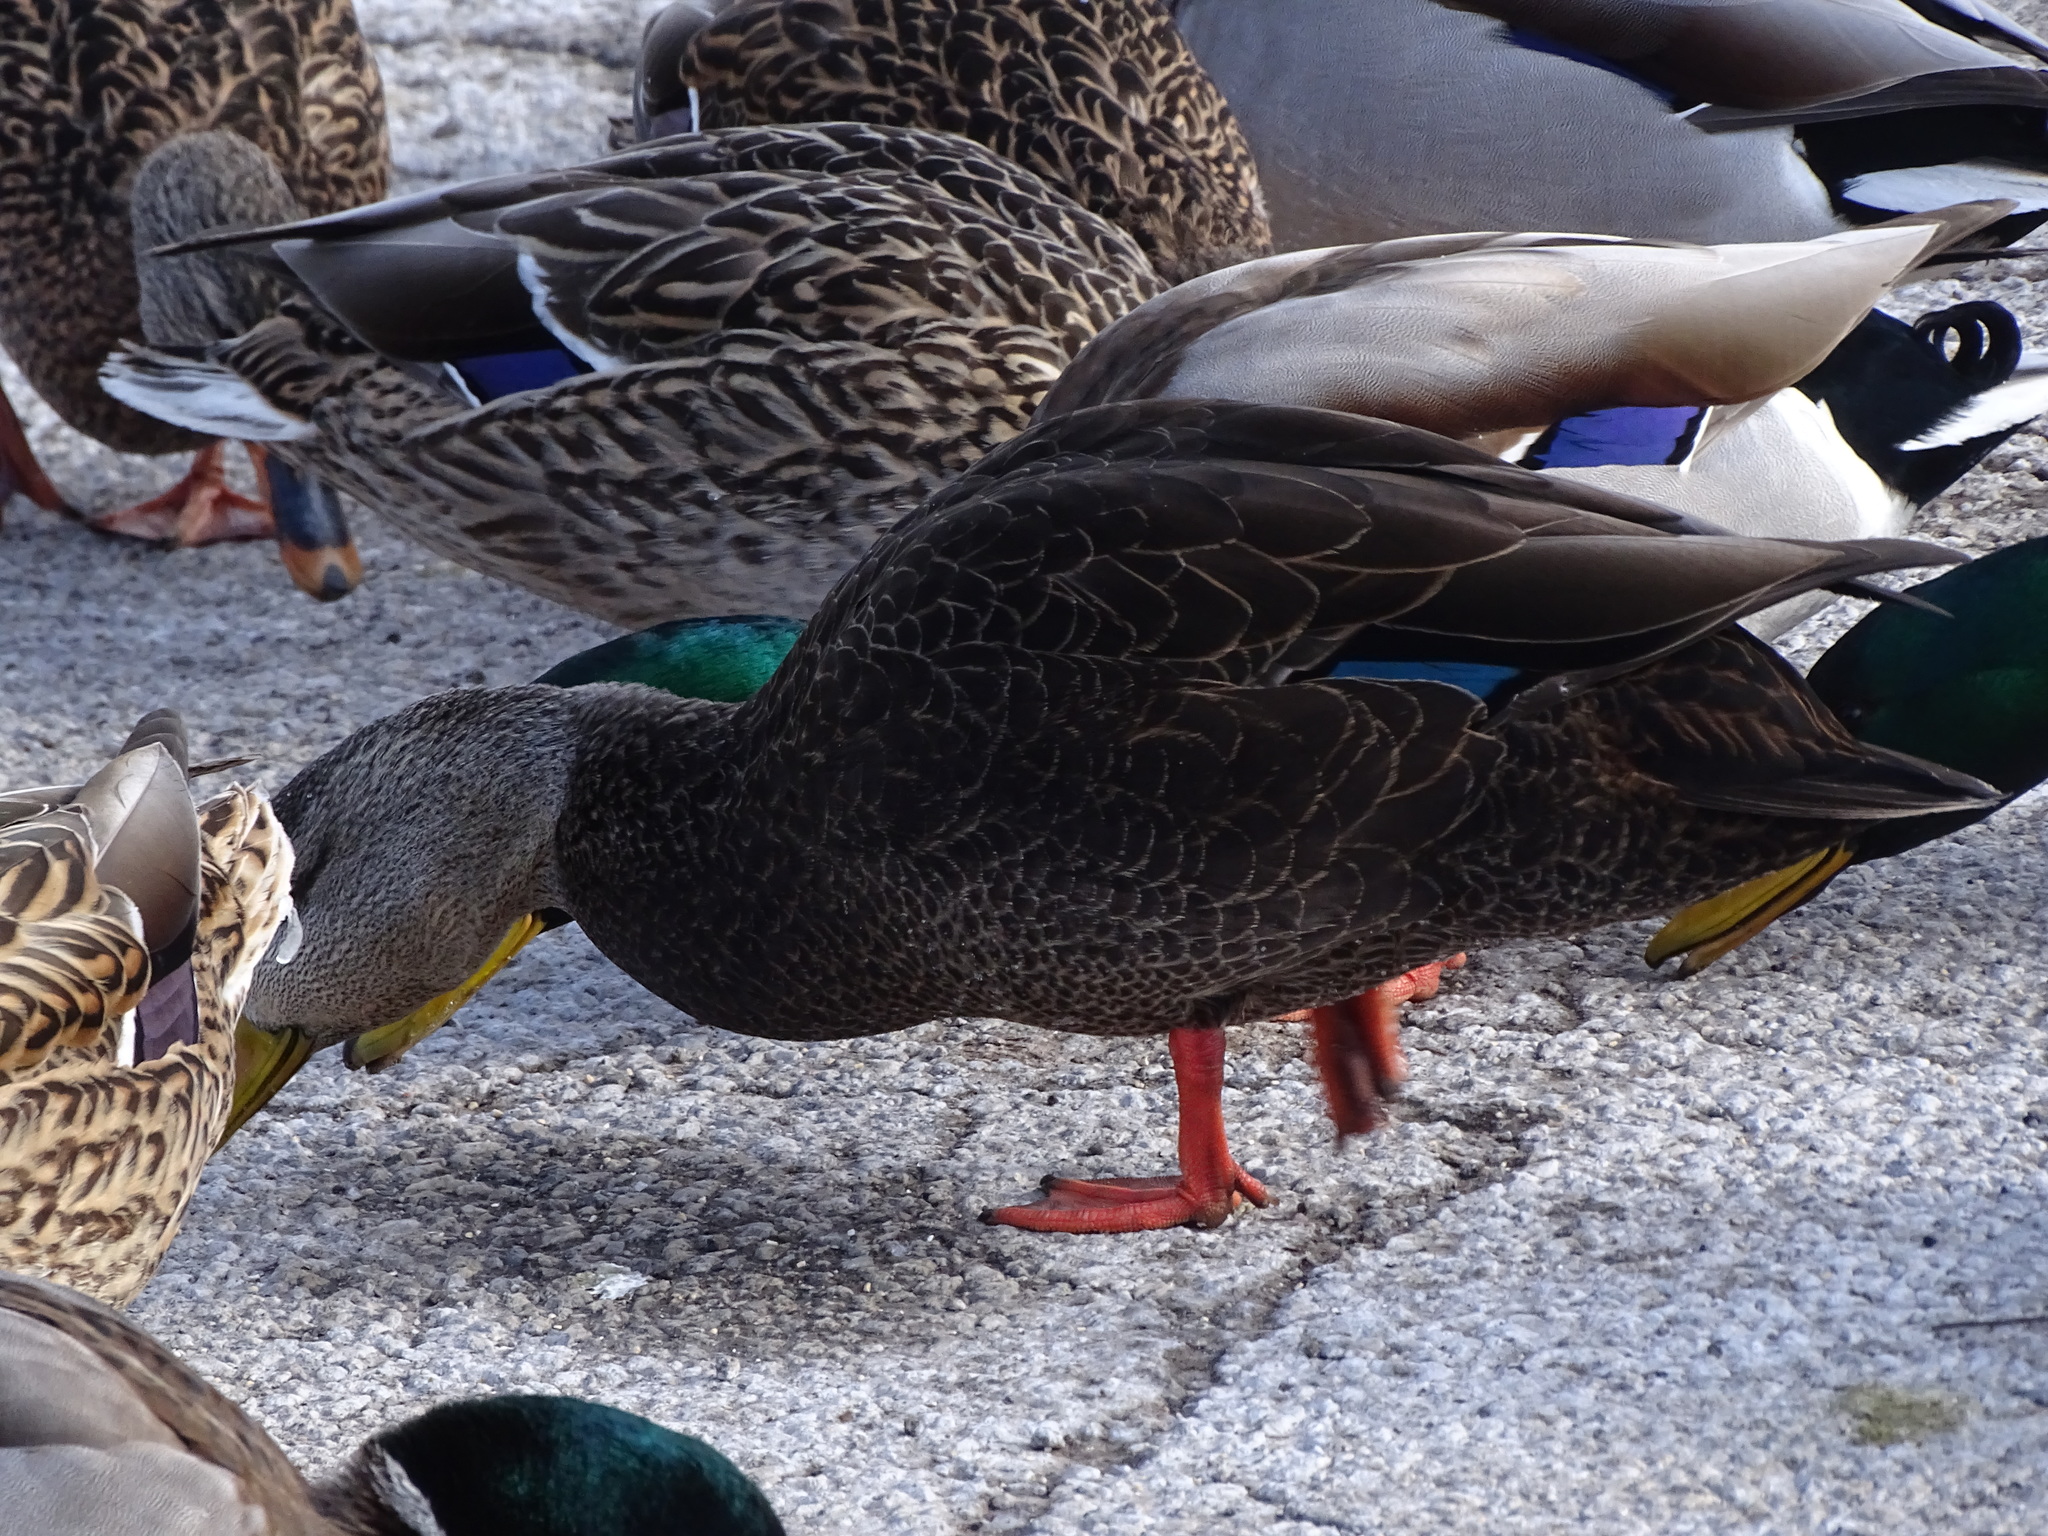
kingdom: Animalia
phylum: Chordata
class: Aves
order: Anseriformes
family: Anatidae
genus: Anas
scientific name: Anas rubripes
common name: American black duck
